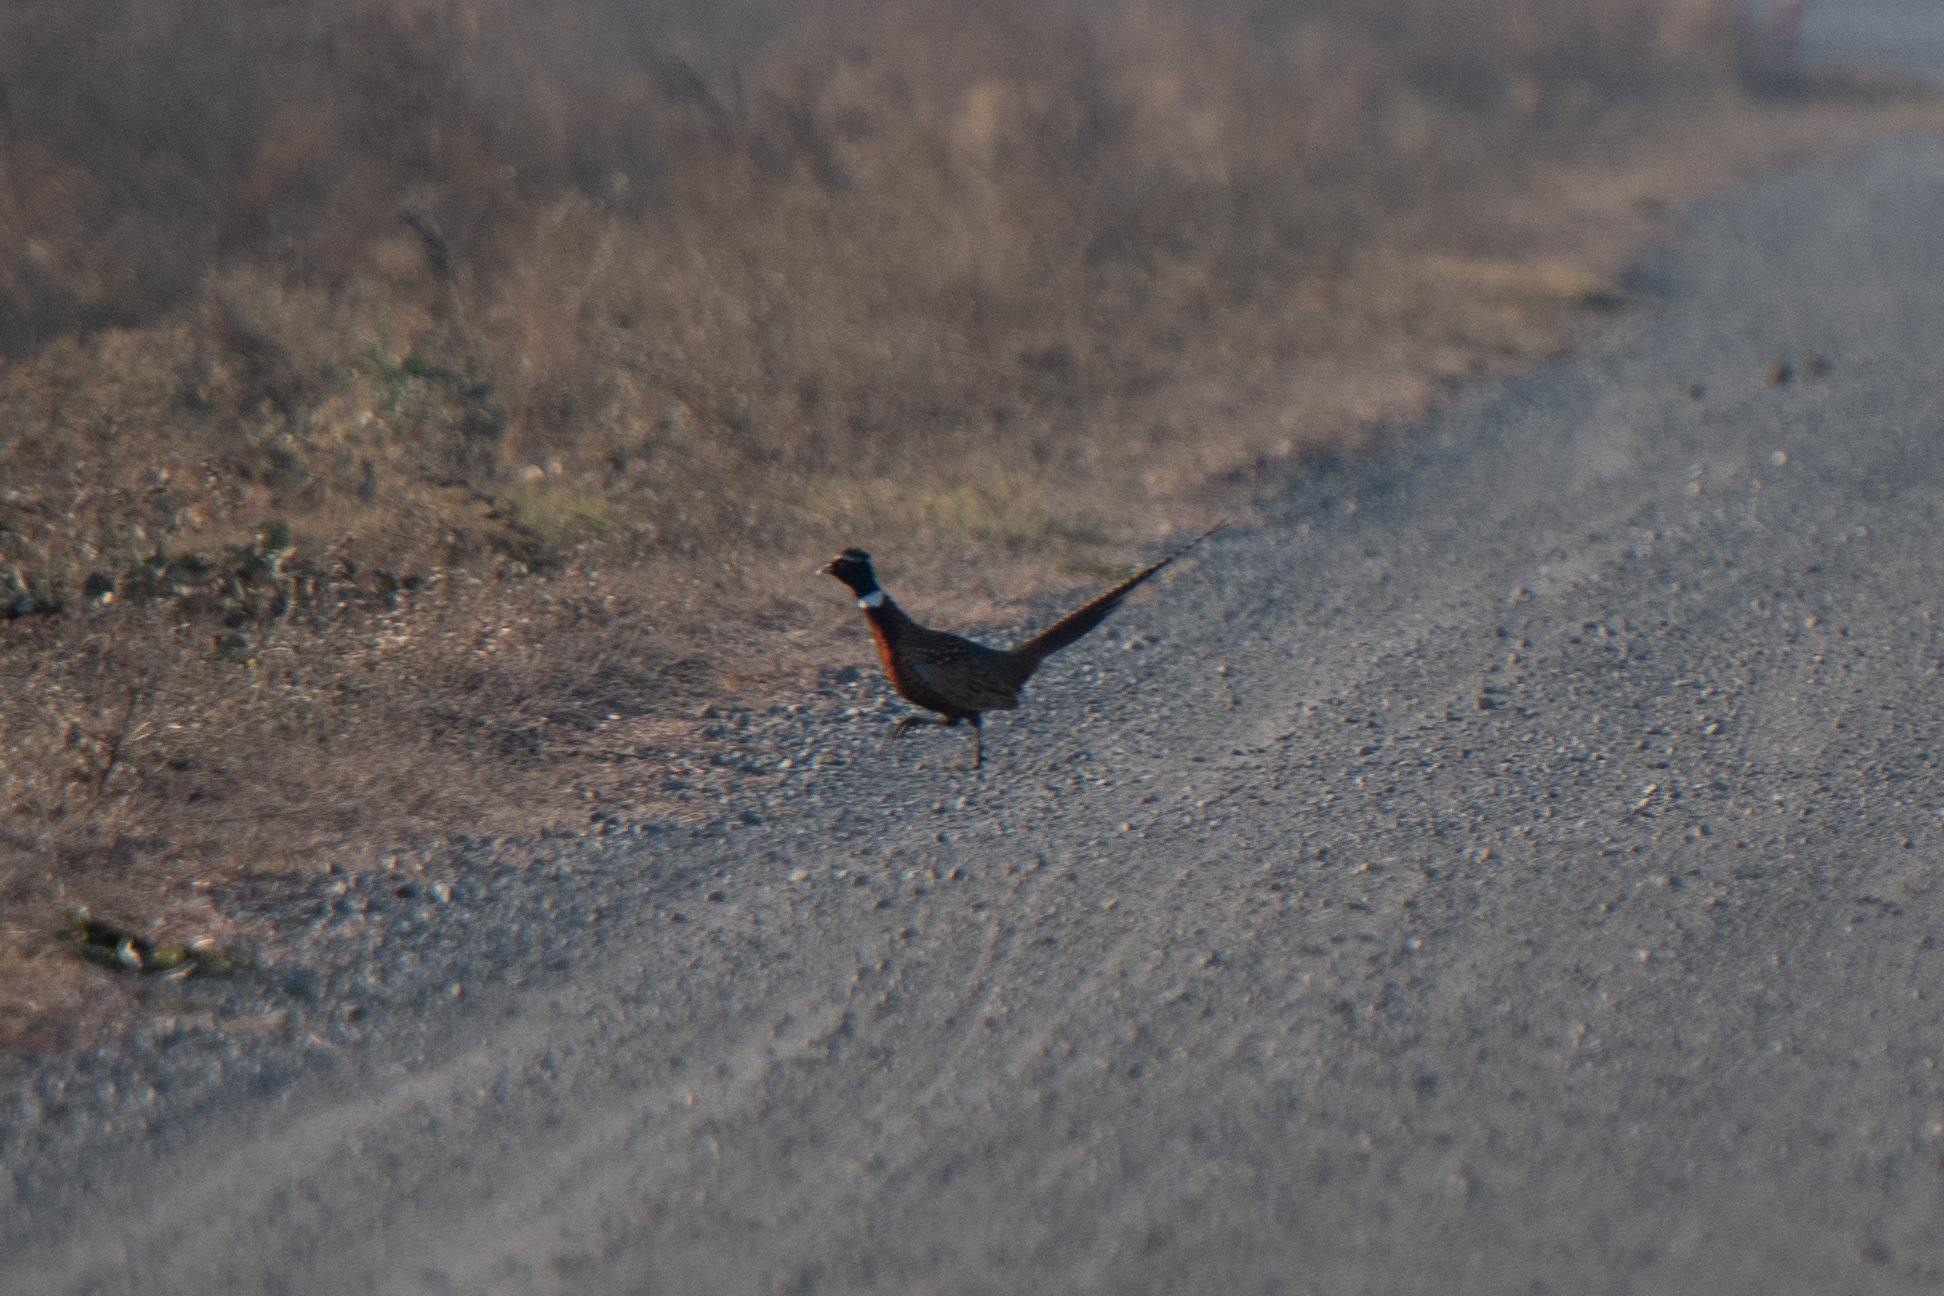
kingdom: Animalia
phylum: Chordata
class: Aves
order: Galliformes
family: Phasianidae
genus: Phasianus
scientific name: Phasianus colchicus
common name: Common pheasant
